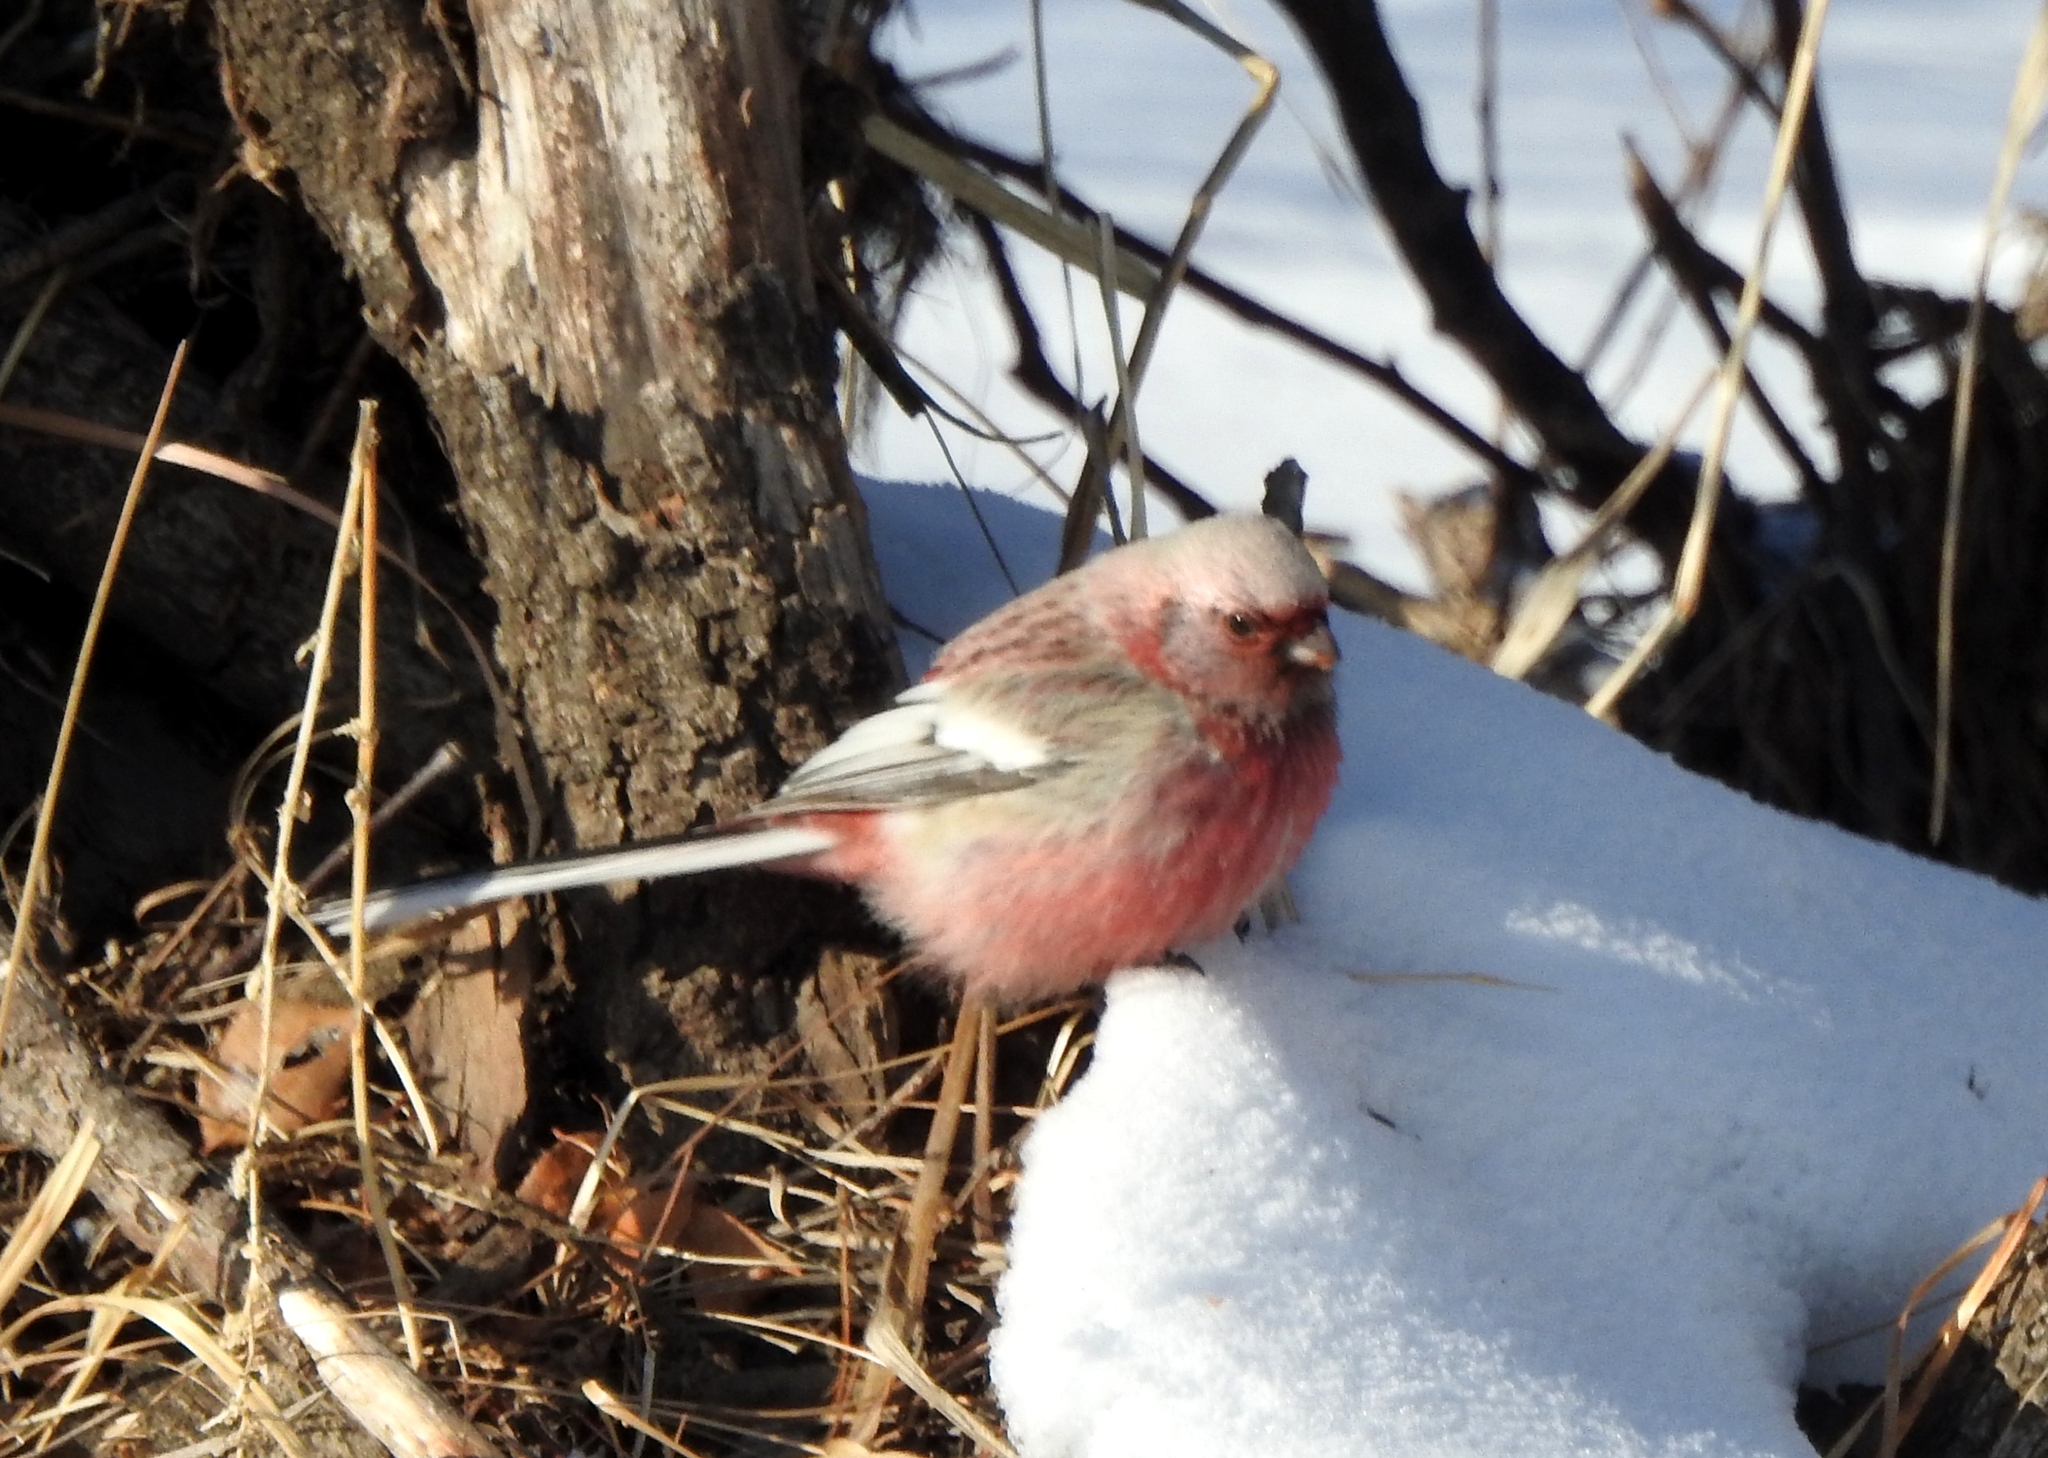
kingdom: Animalia
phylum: Chordata
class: Aves
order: Passeriformes
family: Fringillidae
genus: Carpodacus
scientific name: Carpodacus sibiricus
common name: Long-tailed rosefinch
